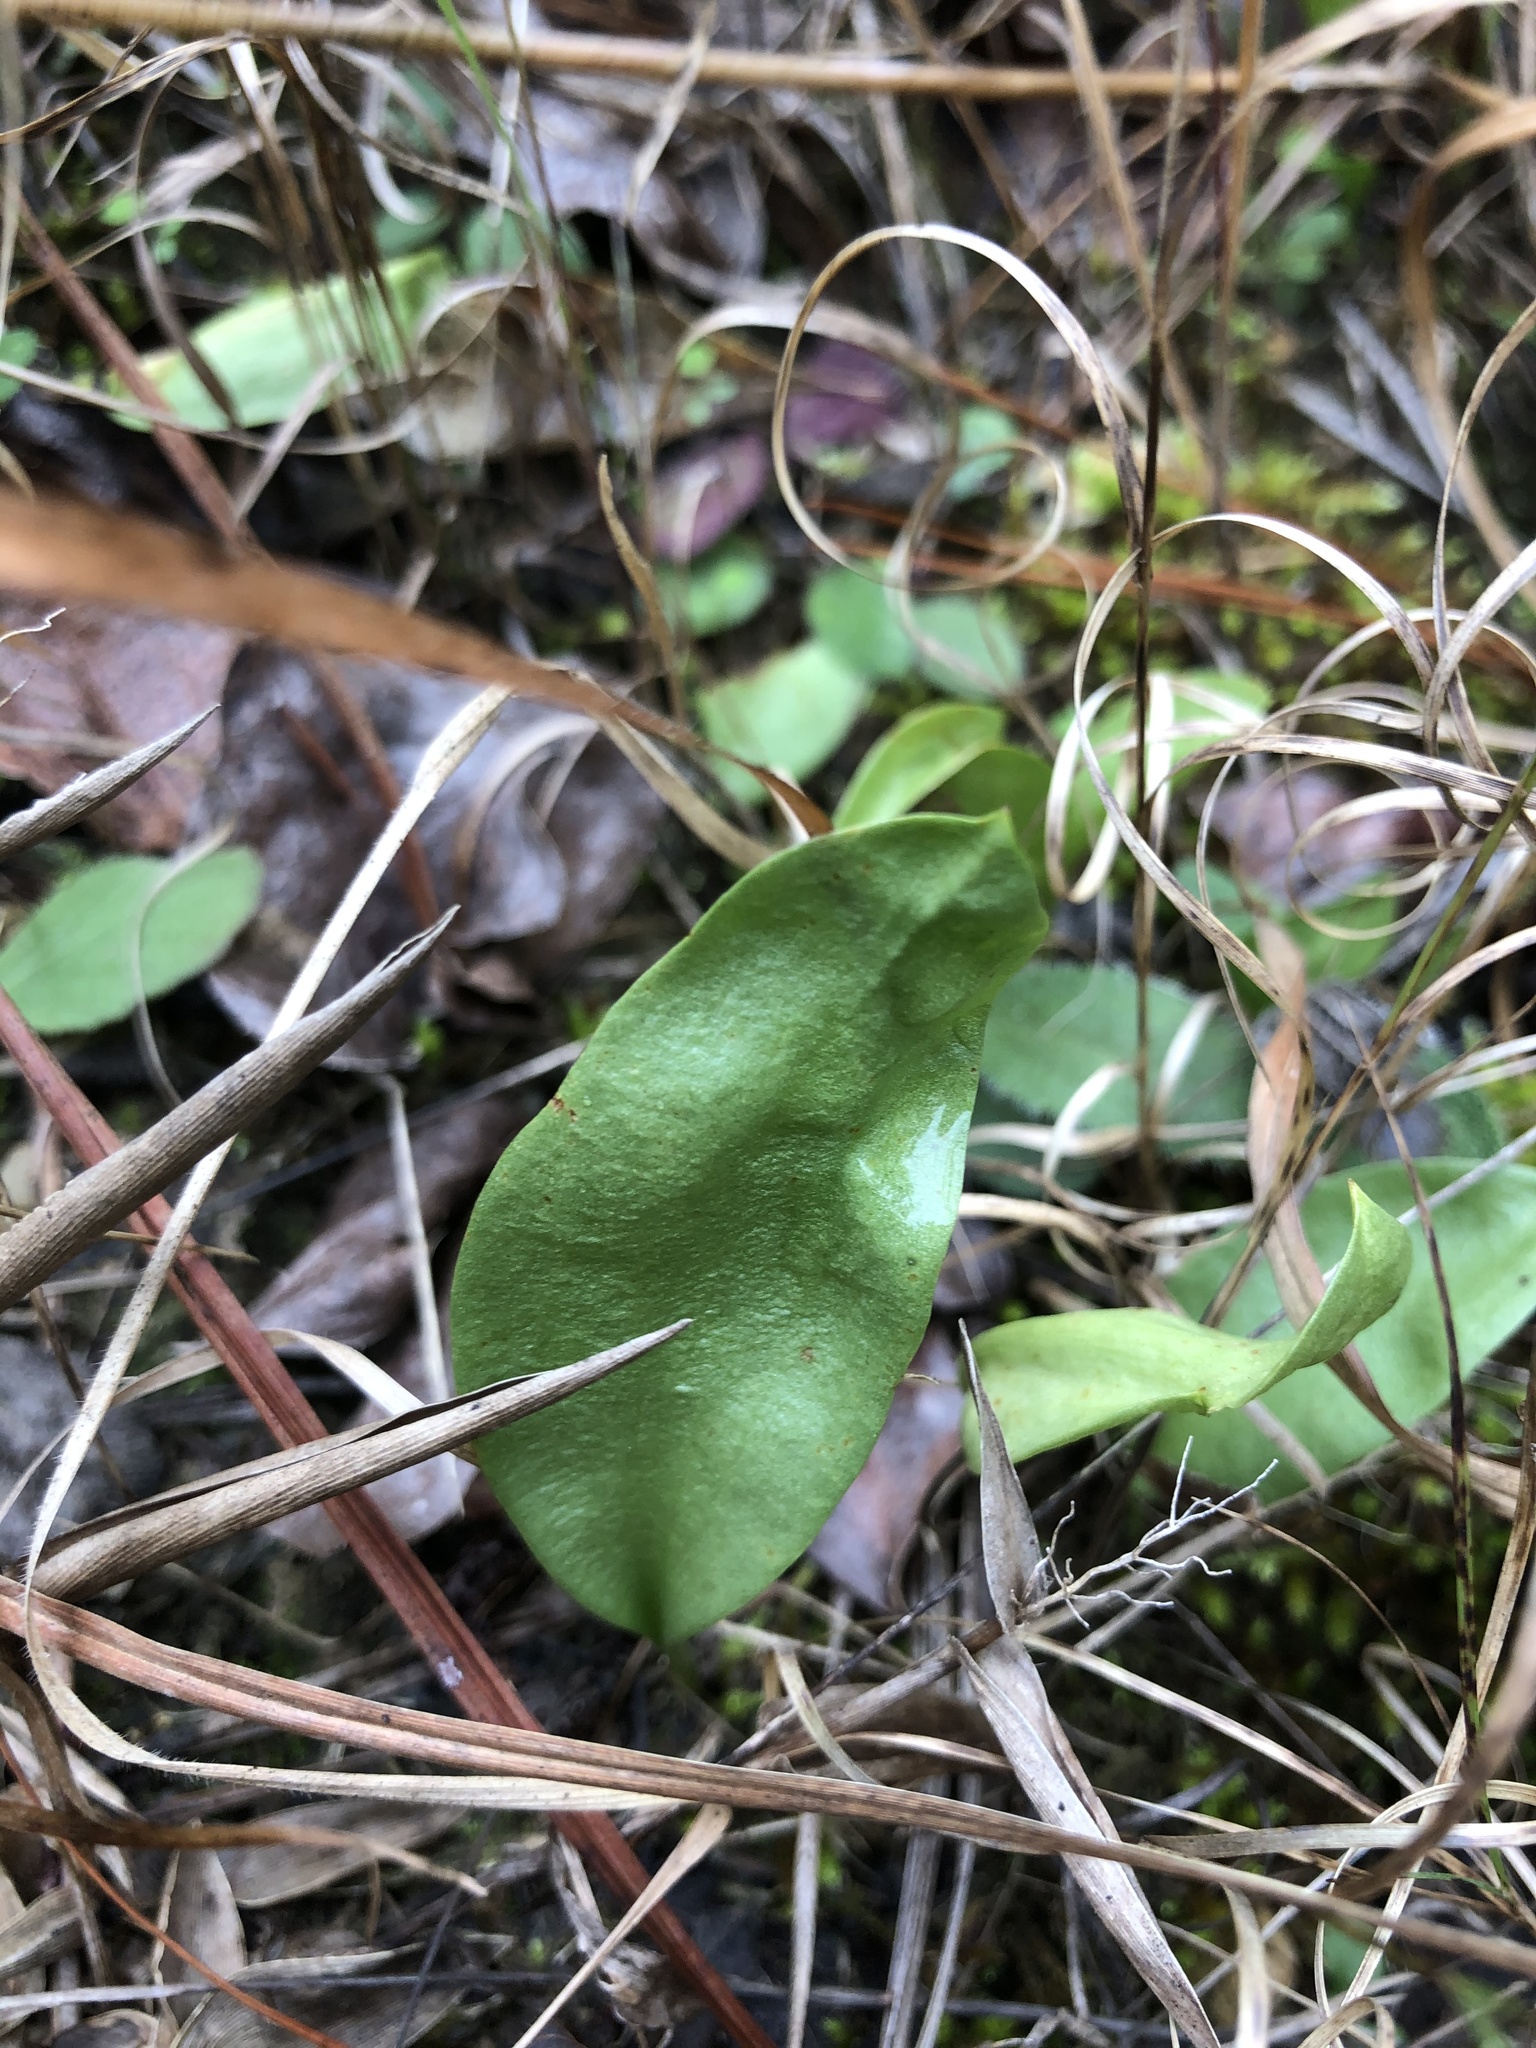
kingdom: Plantae
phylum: Tracheophyta
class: Polypodiopsida
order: Ophioglossales
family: Ophioglossaceae
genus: Ophioglossum
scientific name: Ophioglossum engelmannii
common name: Limestone adder's-tongue
